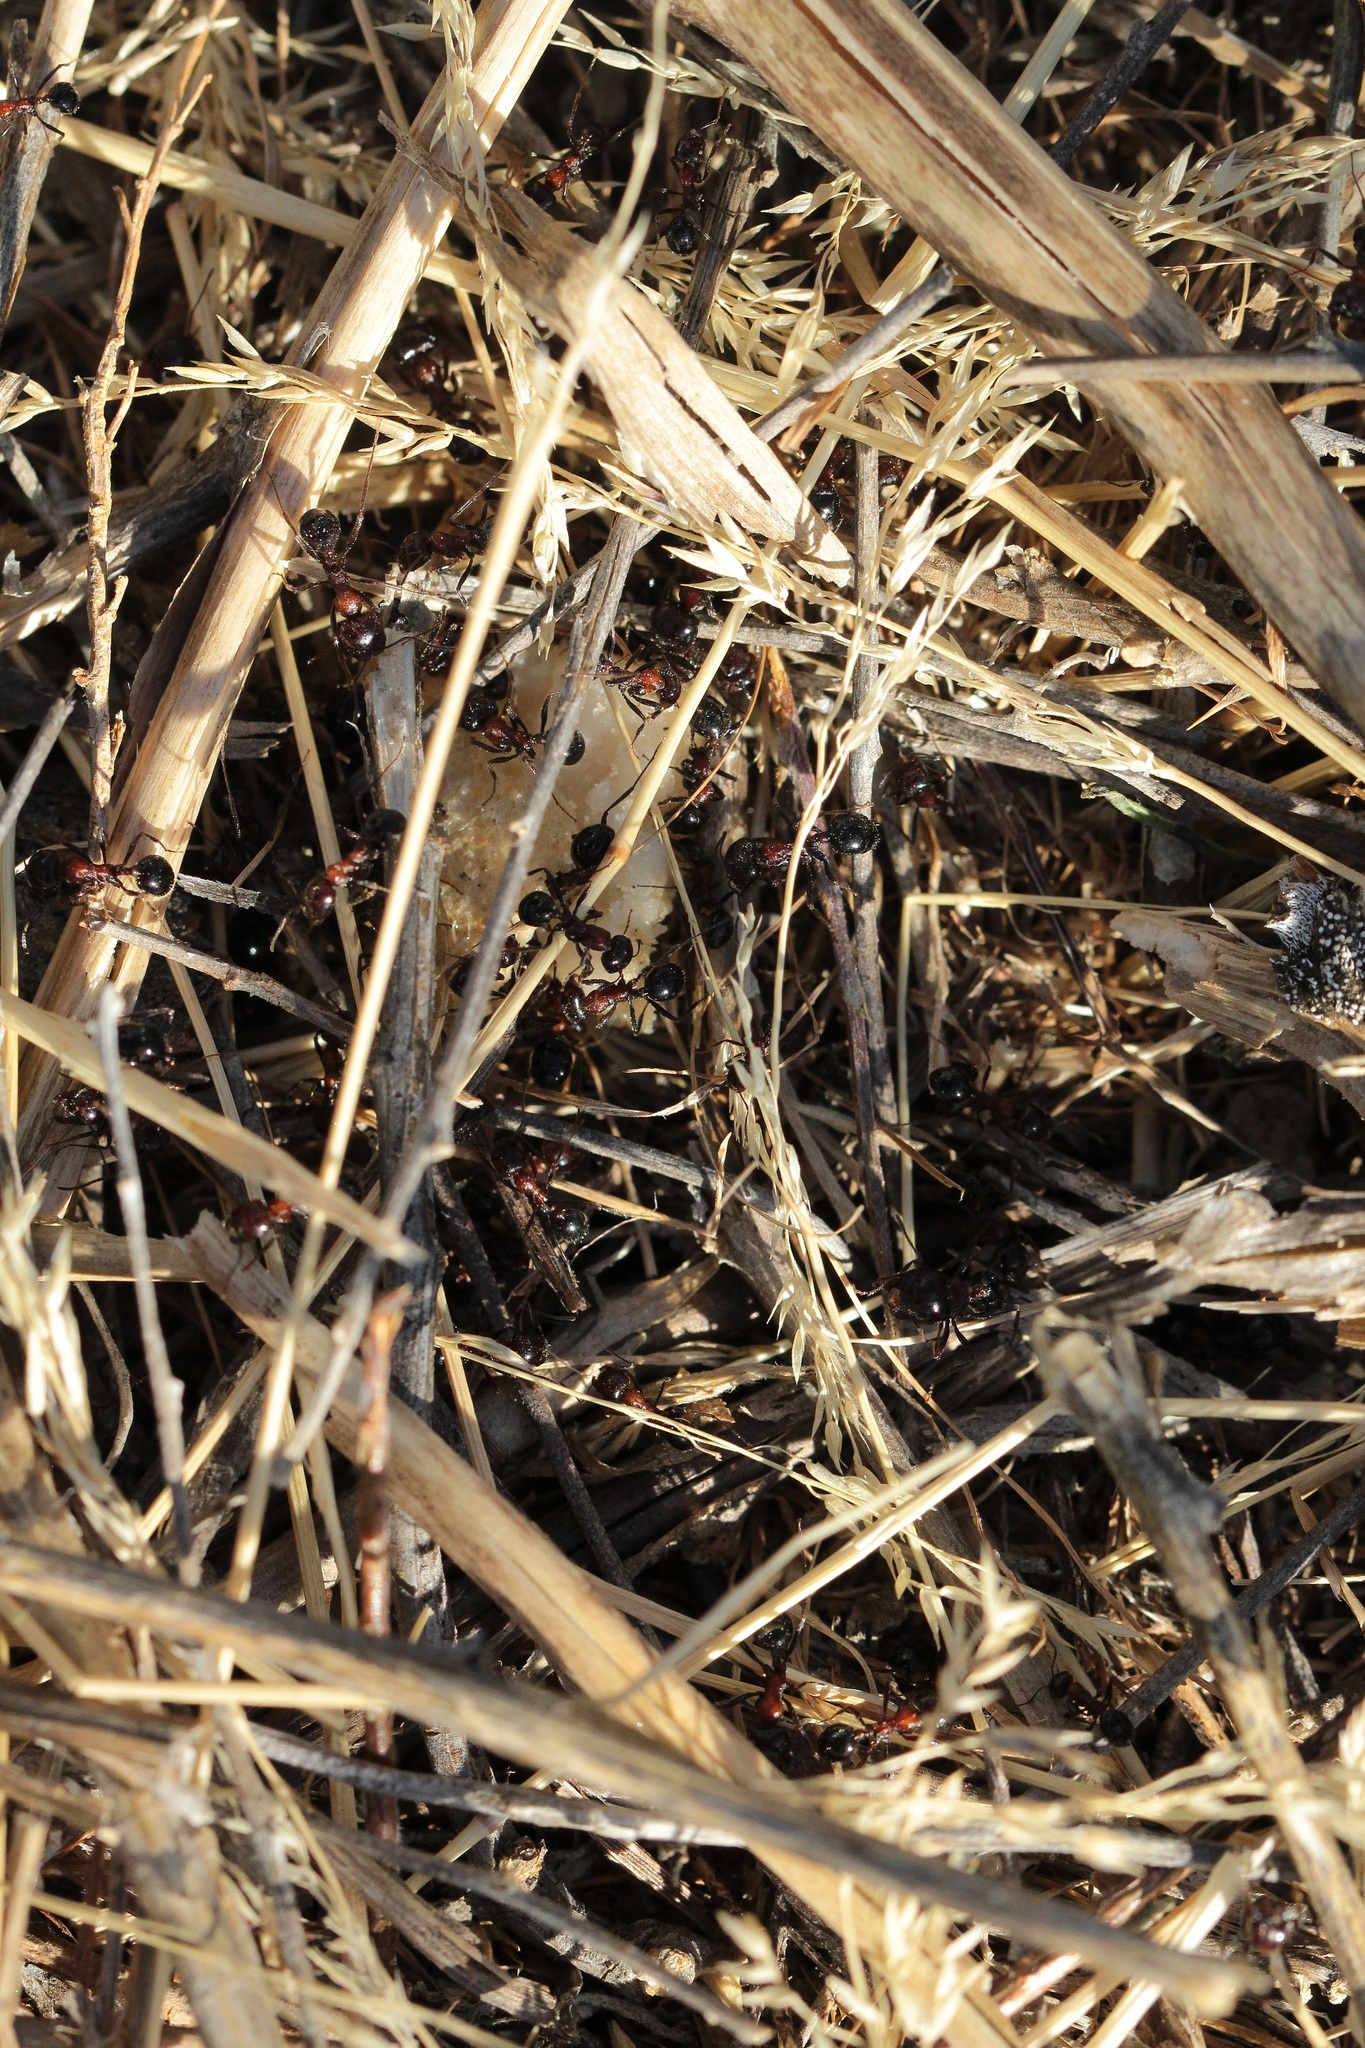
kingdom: Animalia
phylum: Arthropoda
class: Insecta
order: Hymenoptera
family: Formicidae
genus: Messor
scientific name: Messor denticulatus
